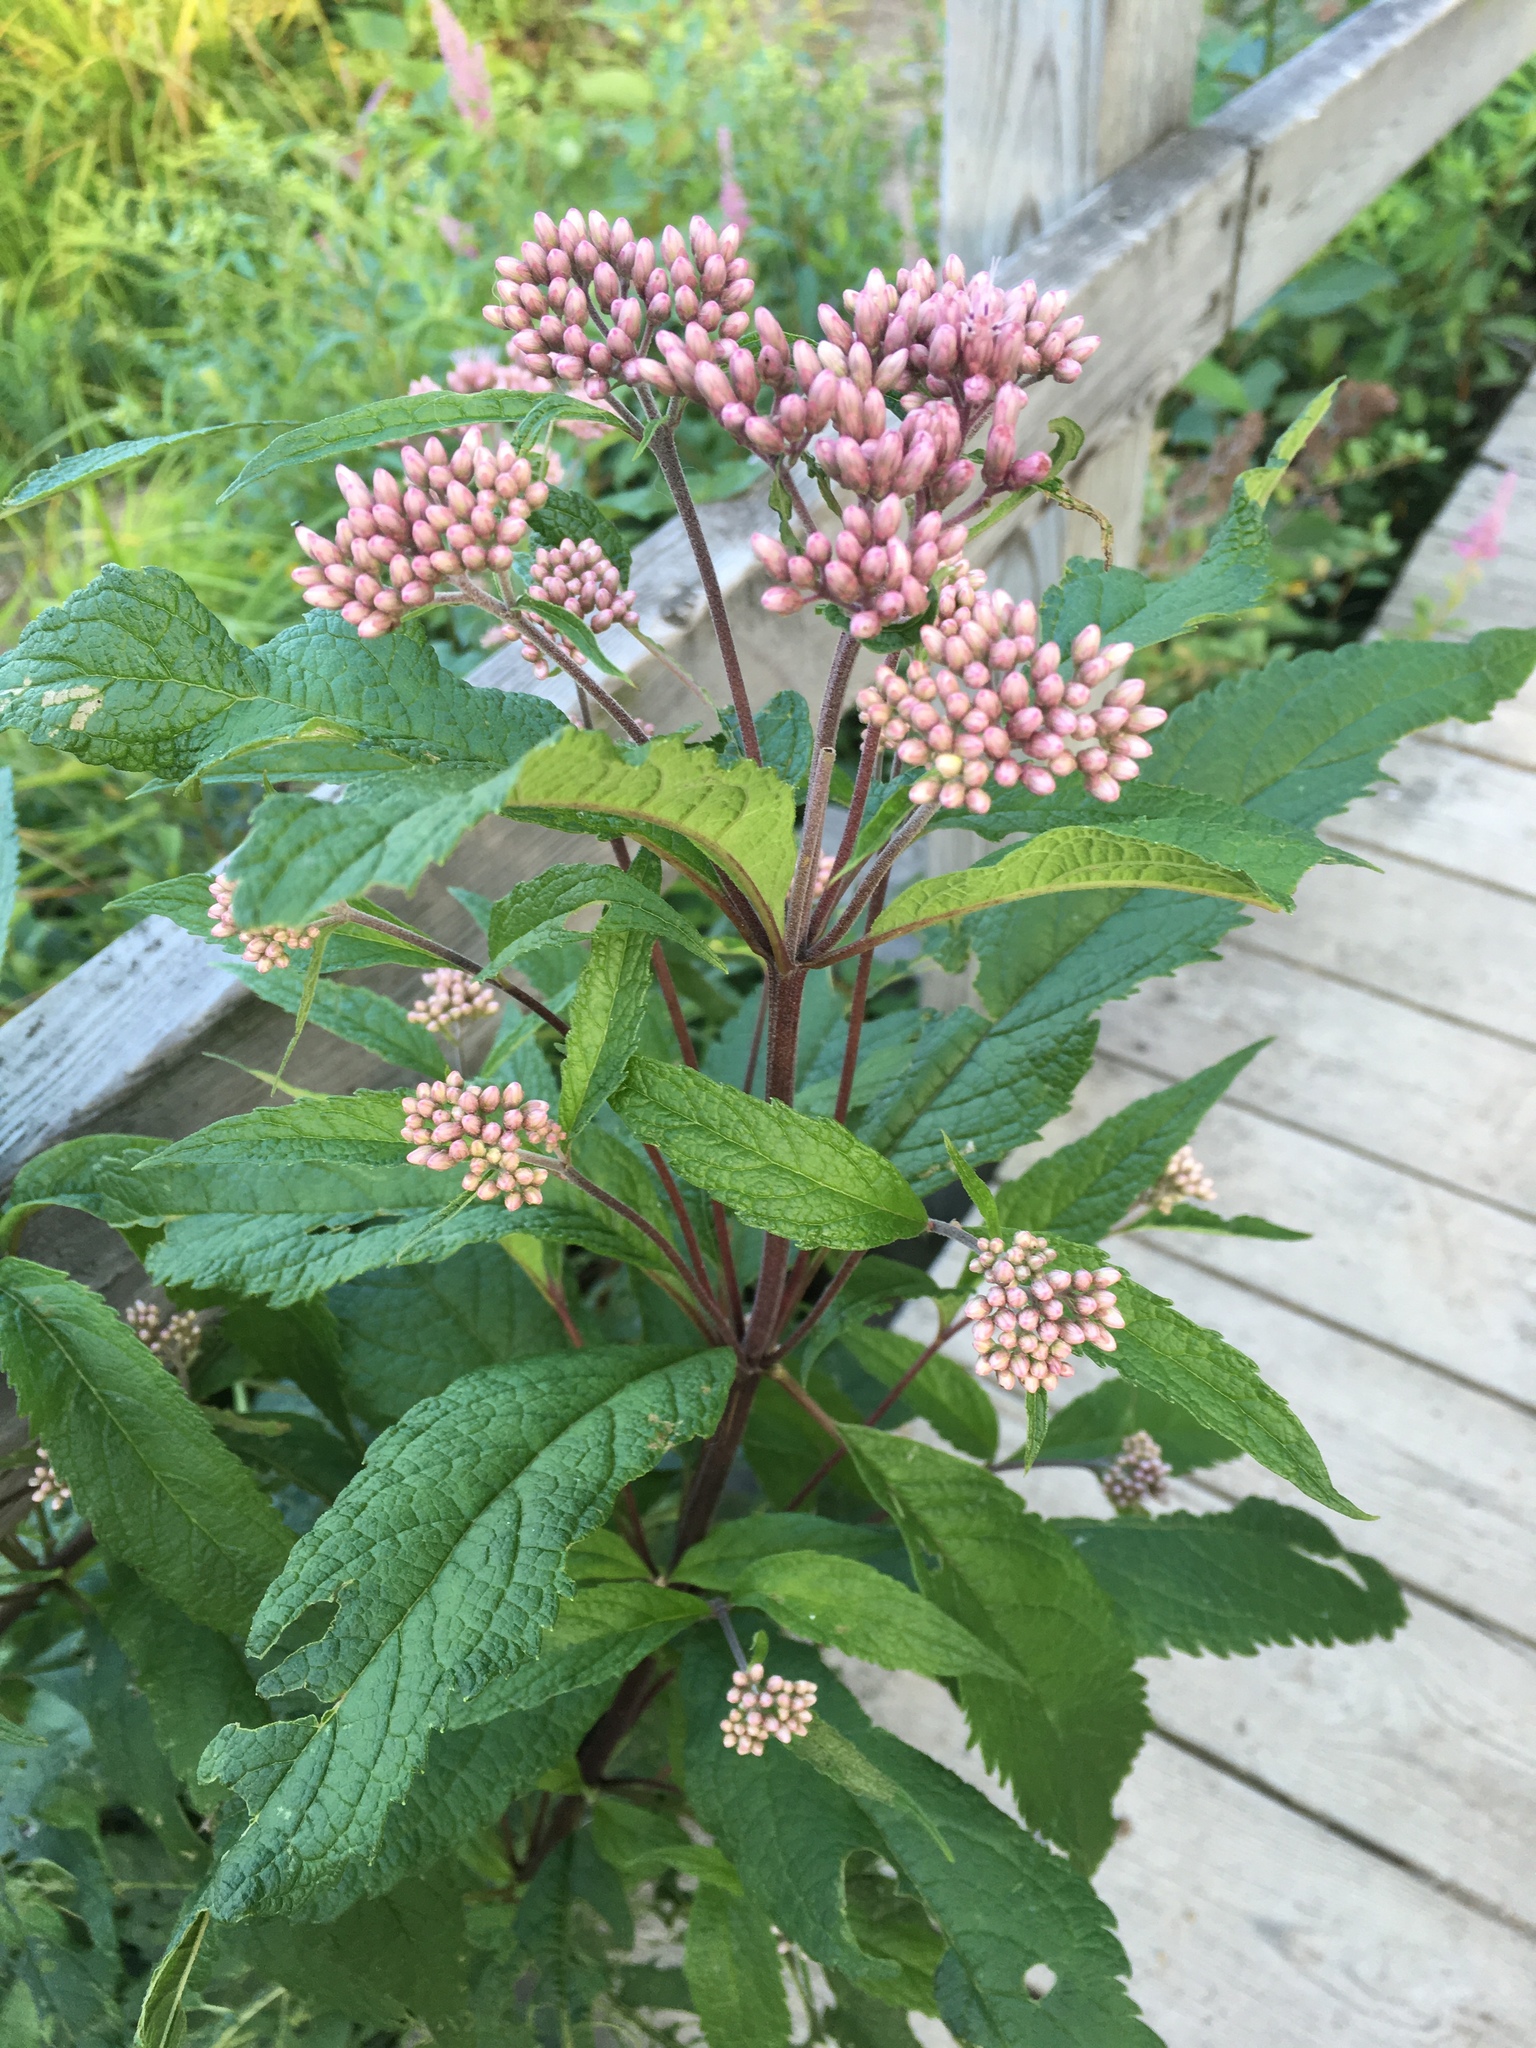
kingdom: Plantae
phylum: Tracheophyta
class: Magnoliopsida
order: Asterales
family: Asteraceae
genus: Eutrochium
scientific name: Eutrochium maculatum
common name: Spotted joe pye weed
